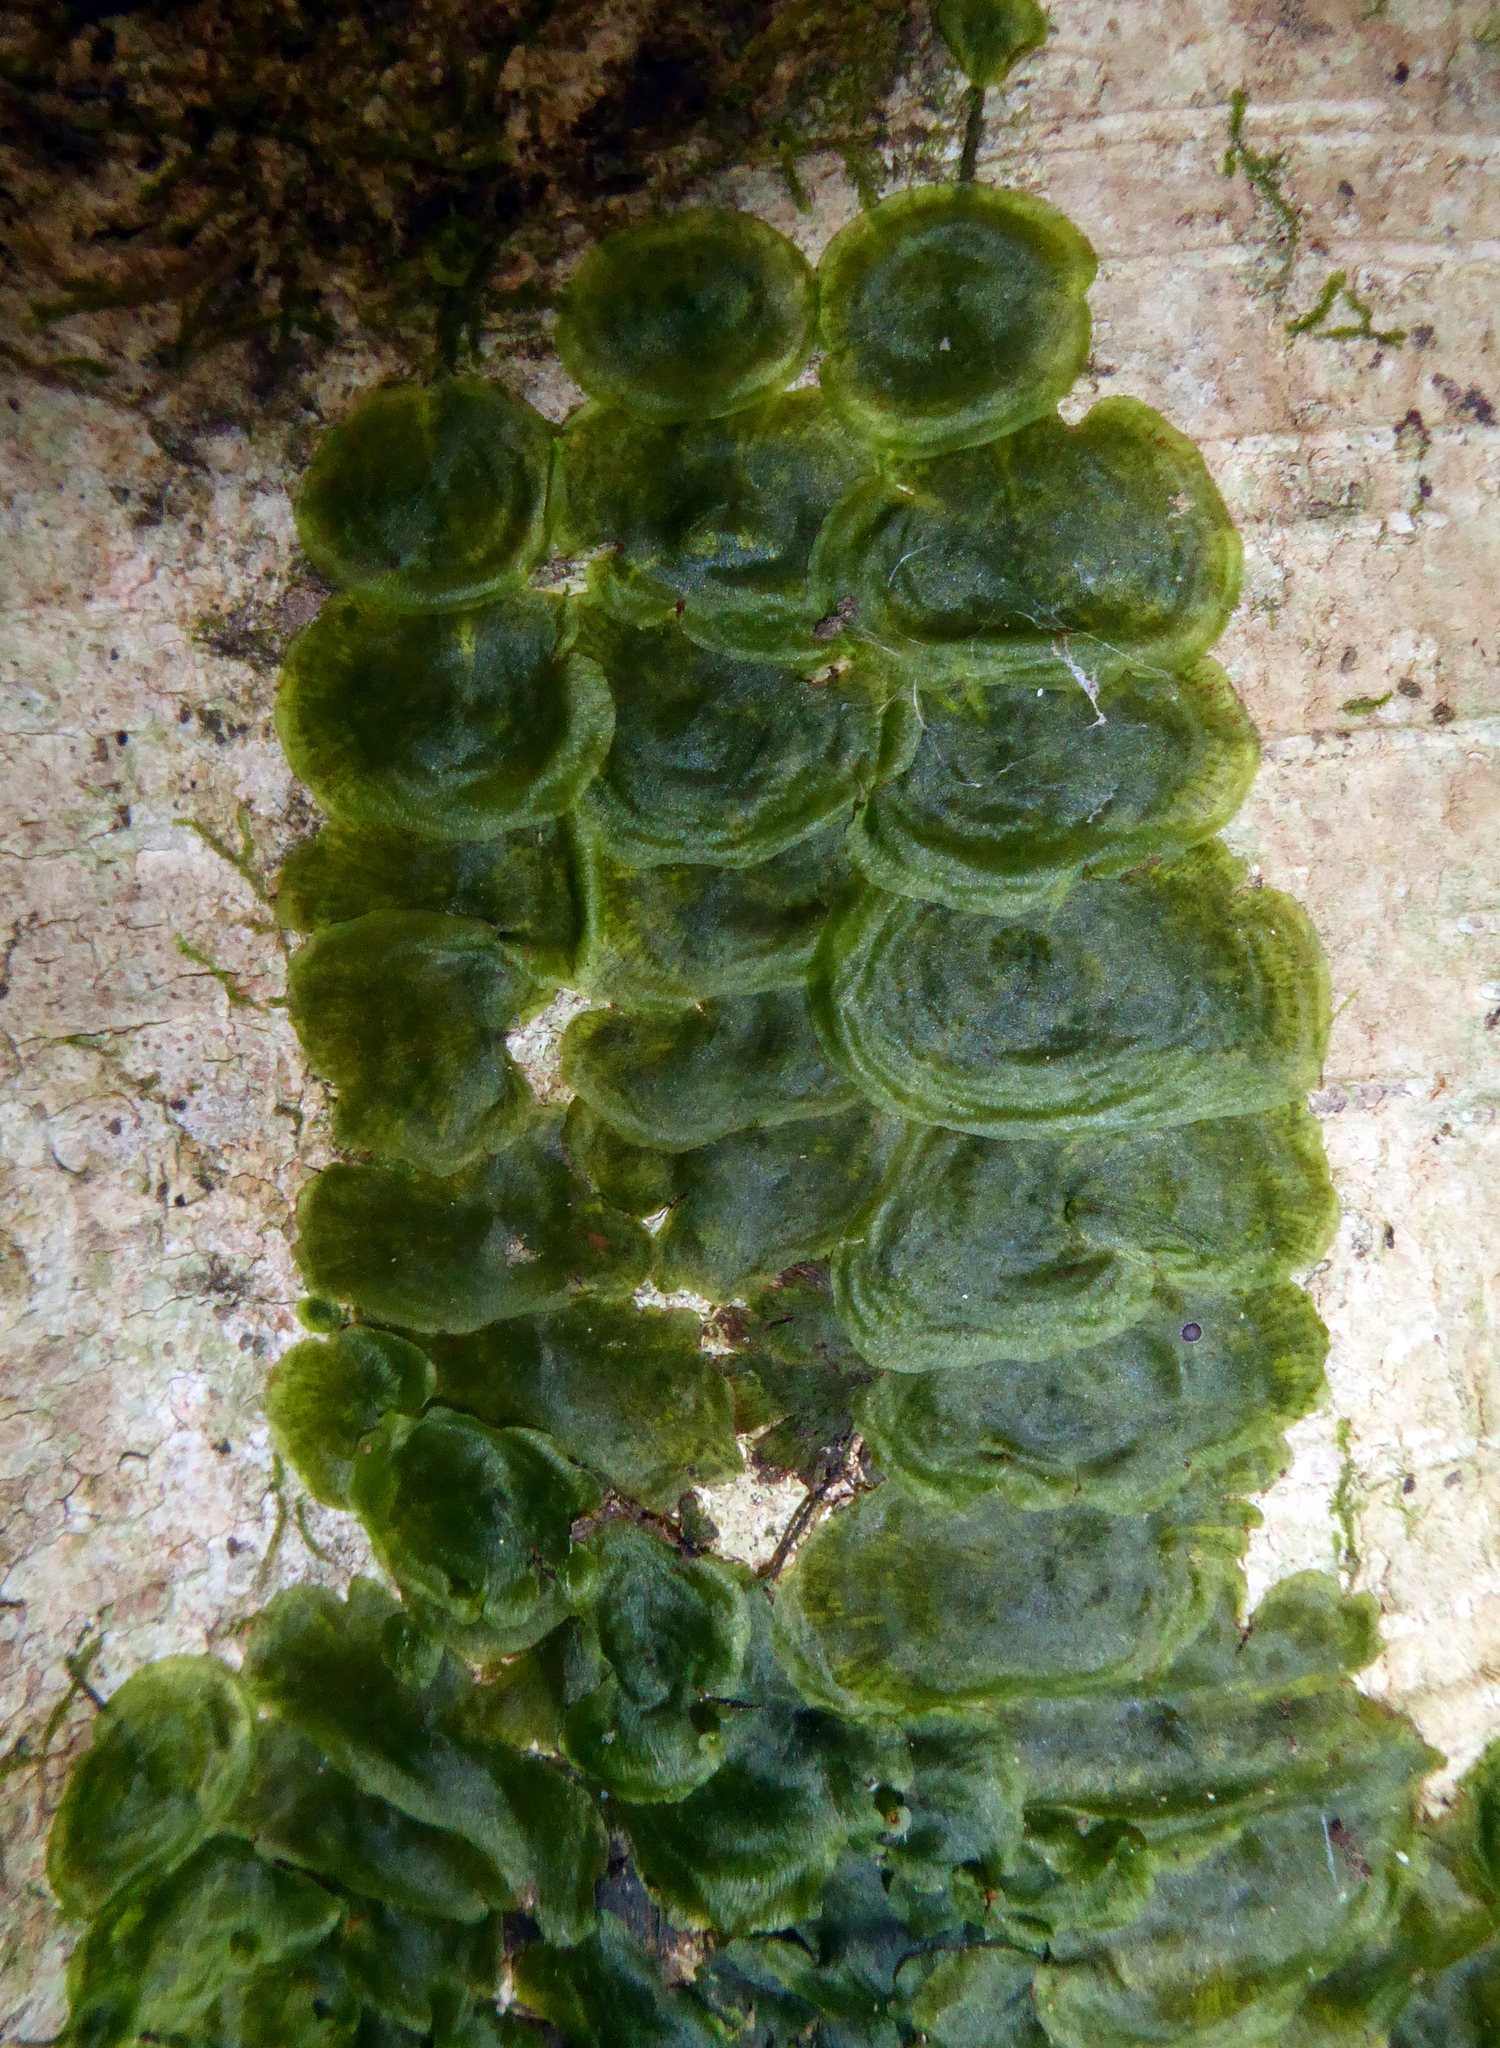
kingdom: Plantae
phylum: Tracheophyta
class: Polypodiopsida
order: Hymenophyllales
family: Hymenophyllaceae
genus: Didymoglossum
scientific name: Didymoglossum tahitense
